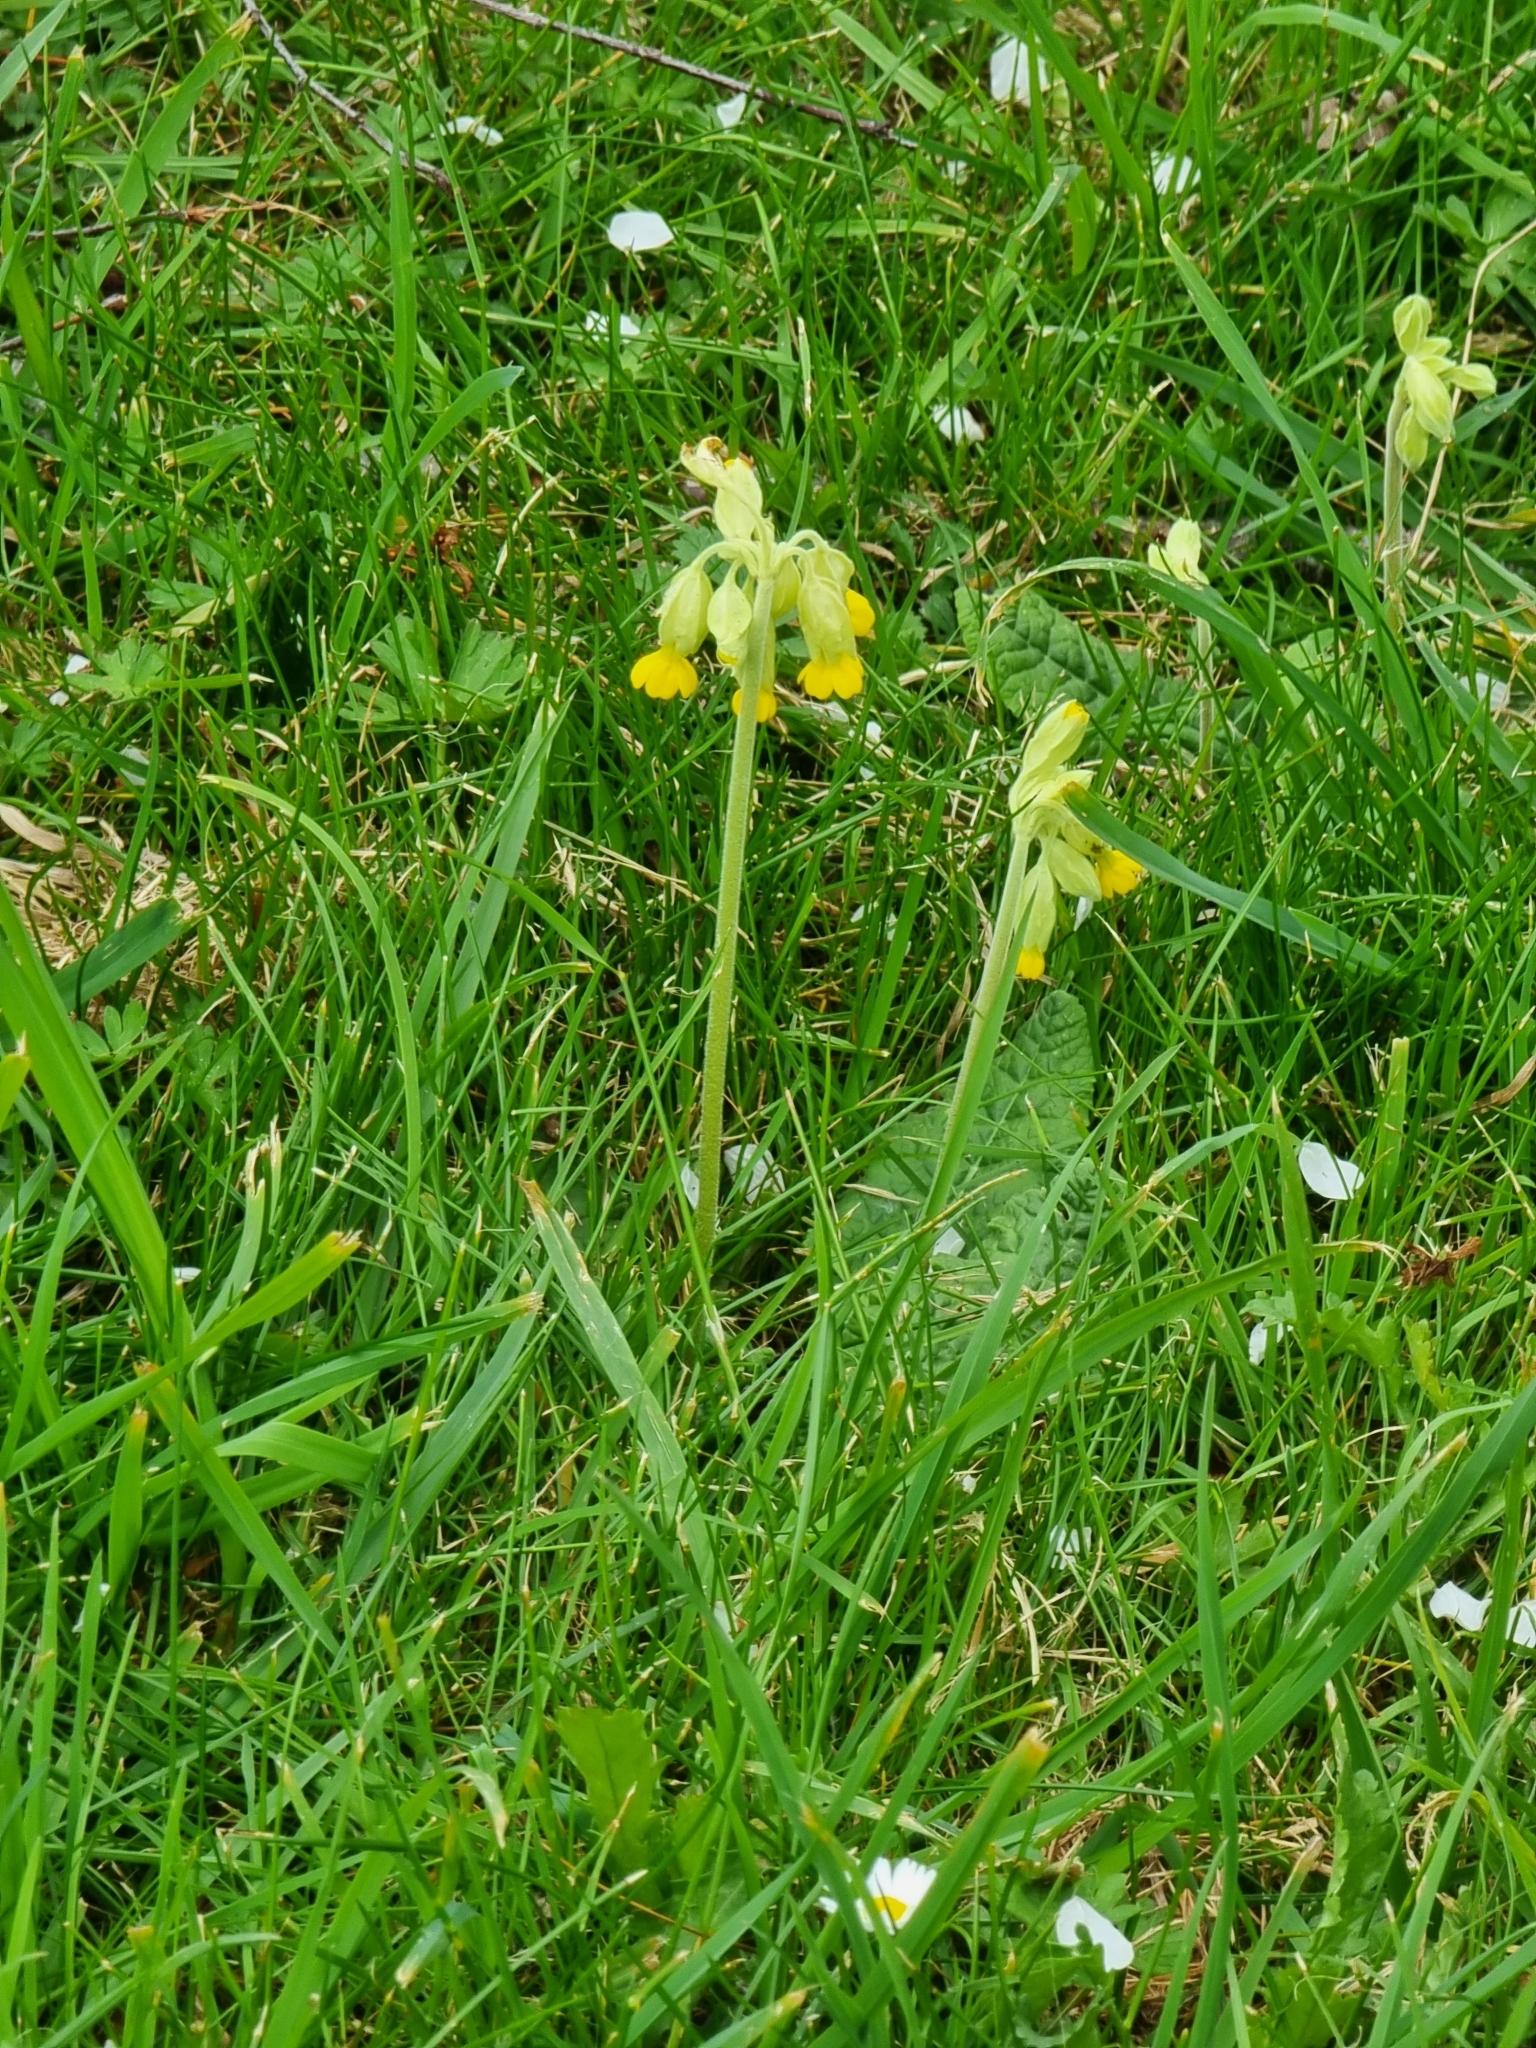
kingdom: Plantae
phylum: Tracheophyta
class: Magnoliopsida
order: Ericales
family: Primulaceae
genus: Primula
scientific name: Primula veris
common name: Cowslip
